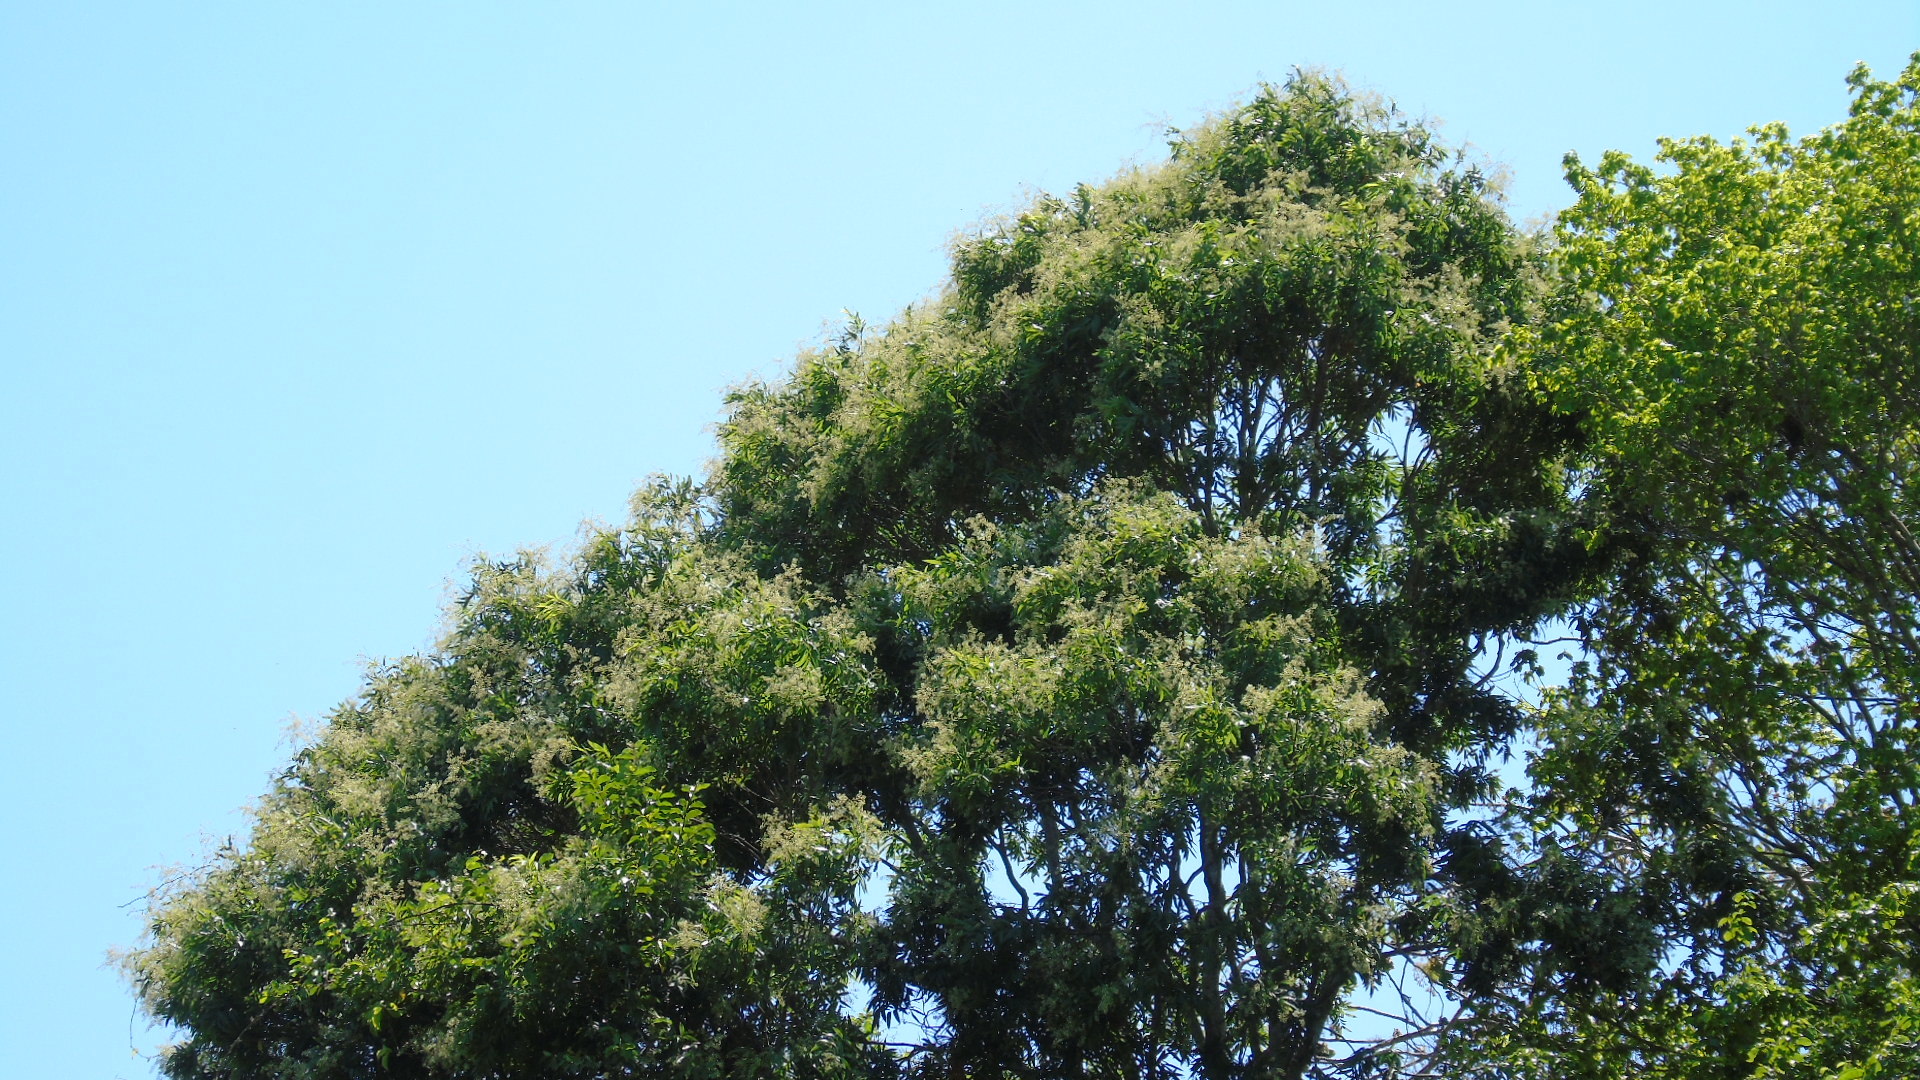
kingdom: Plantae
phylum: Tracheophyta
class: Magnoliopsida
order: Sapindales
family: Sapindaceae
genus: Thouinidium
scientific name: Thouinidium decandrum
